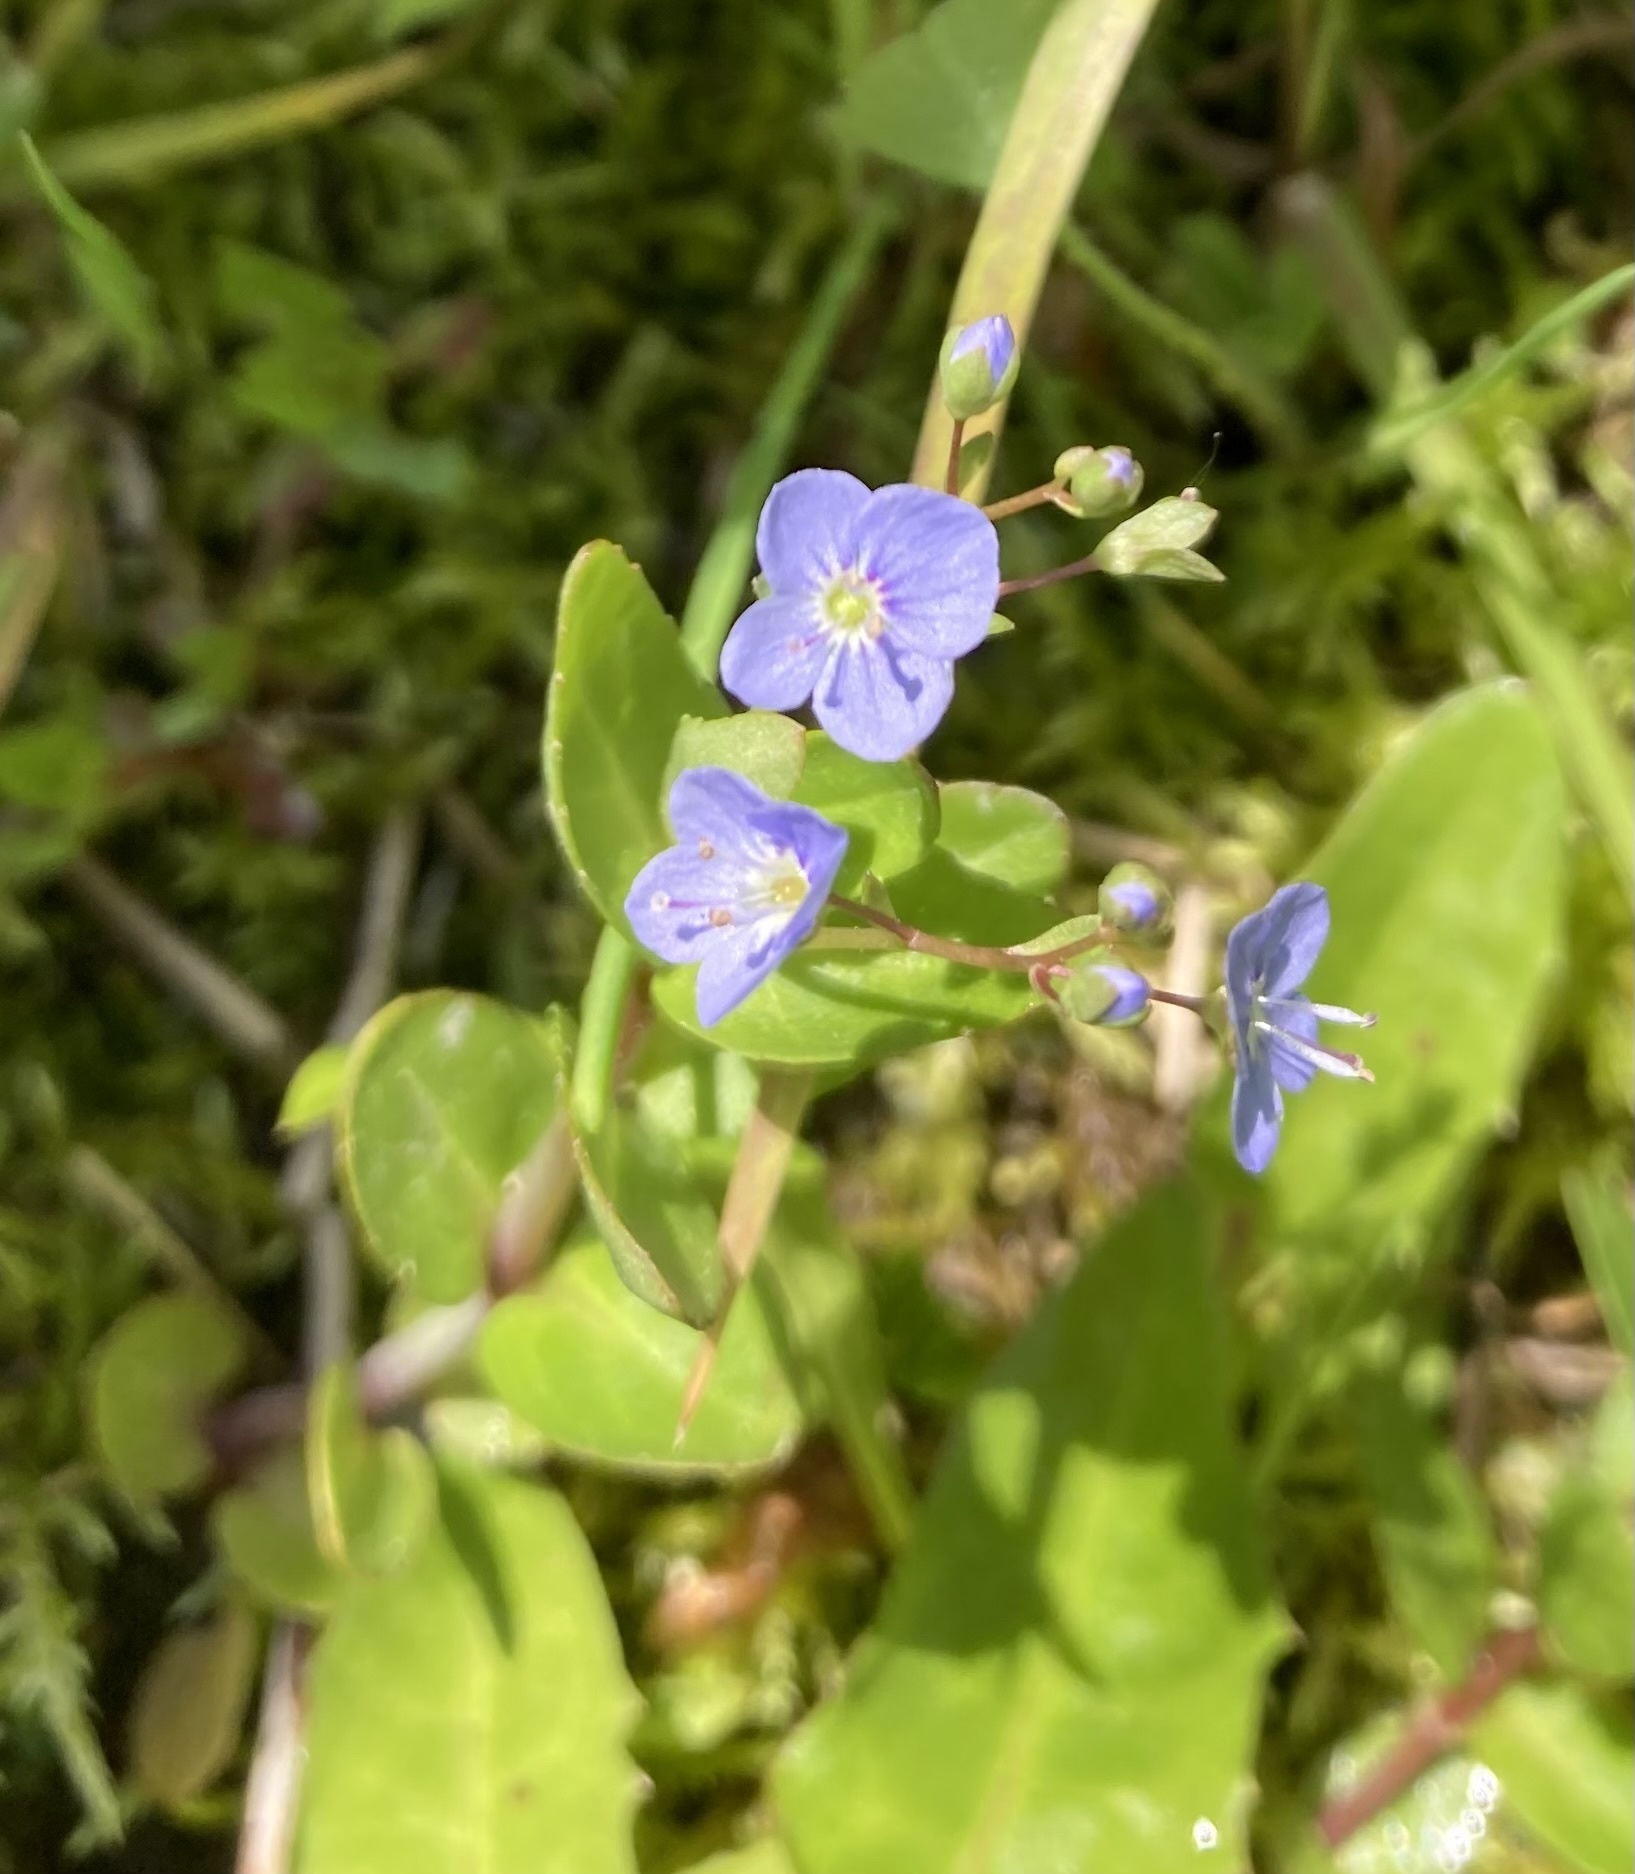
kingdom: Plantae
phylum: Tracheophyta
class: Magnoliopsida
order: Lamiales
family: Plantaginaceae
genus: Veronica
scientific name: Veronica americana
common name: American brooklime
